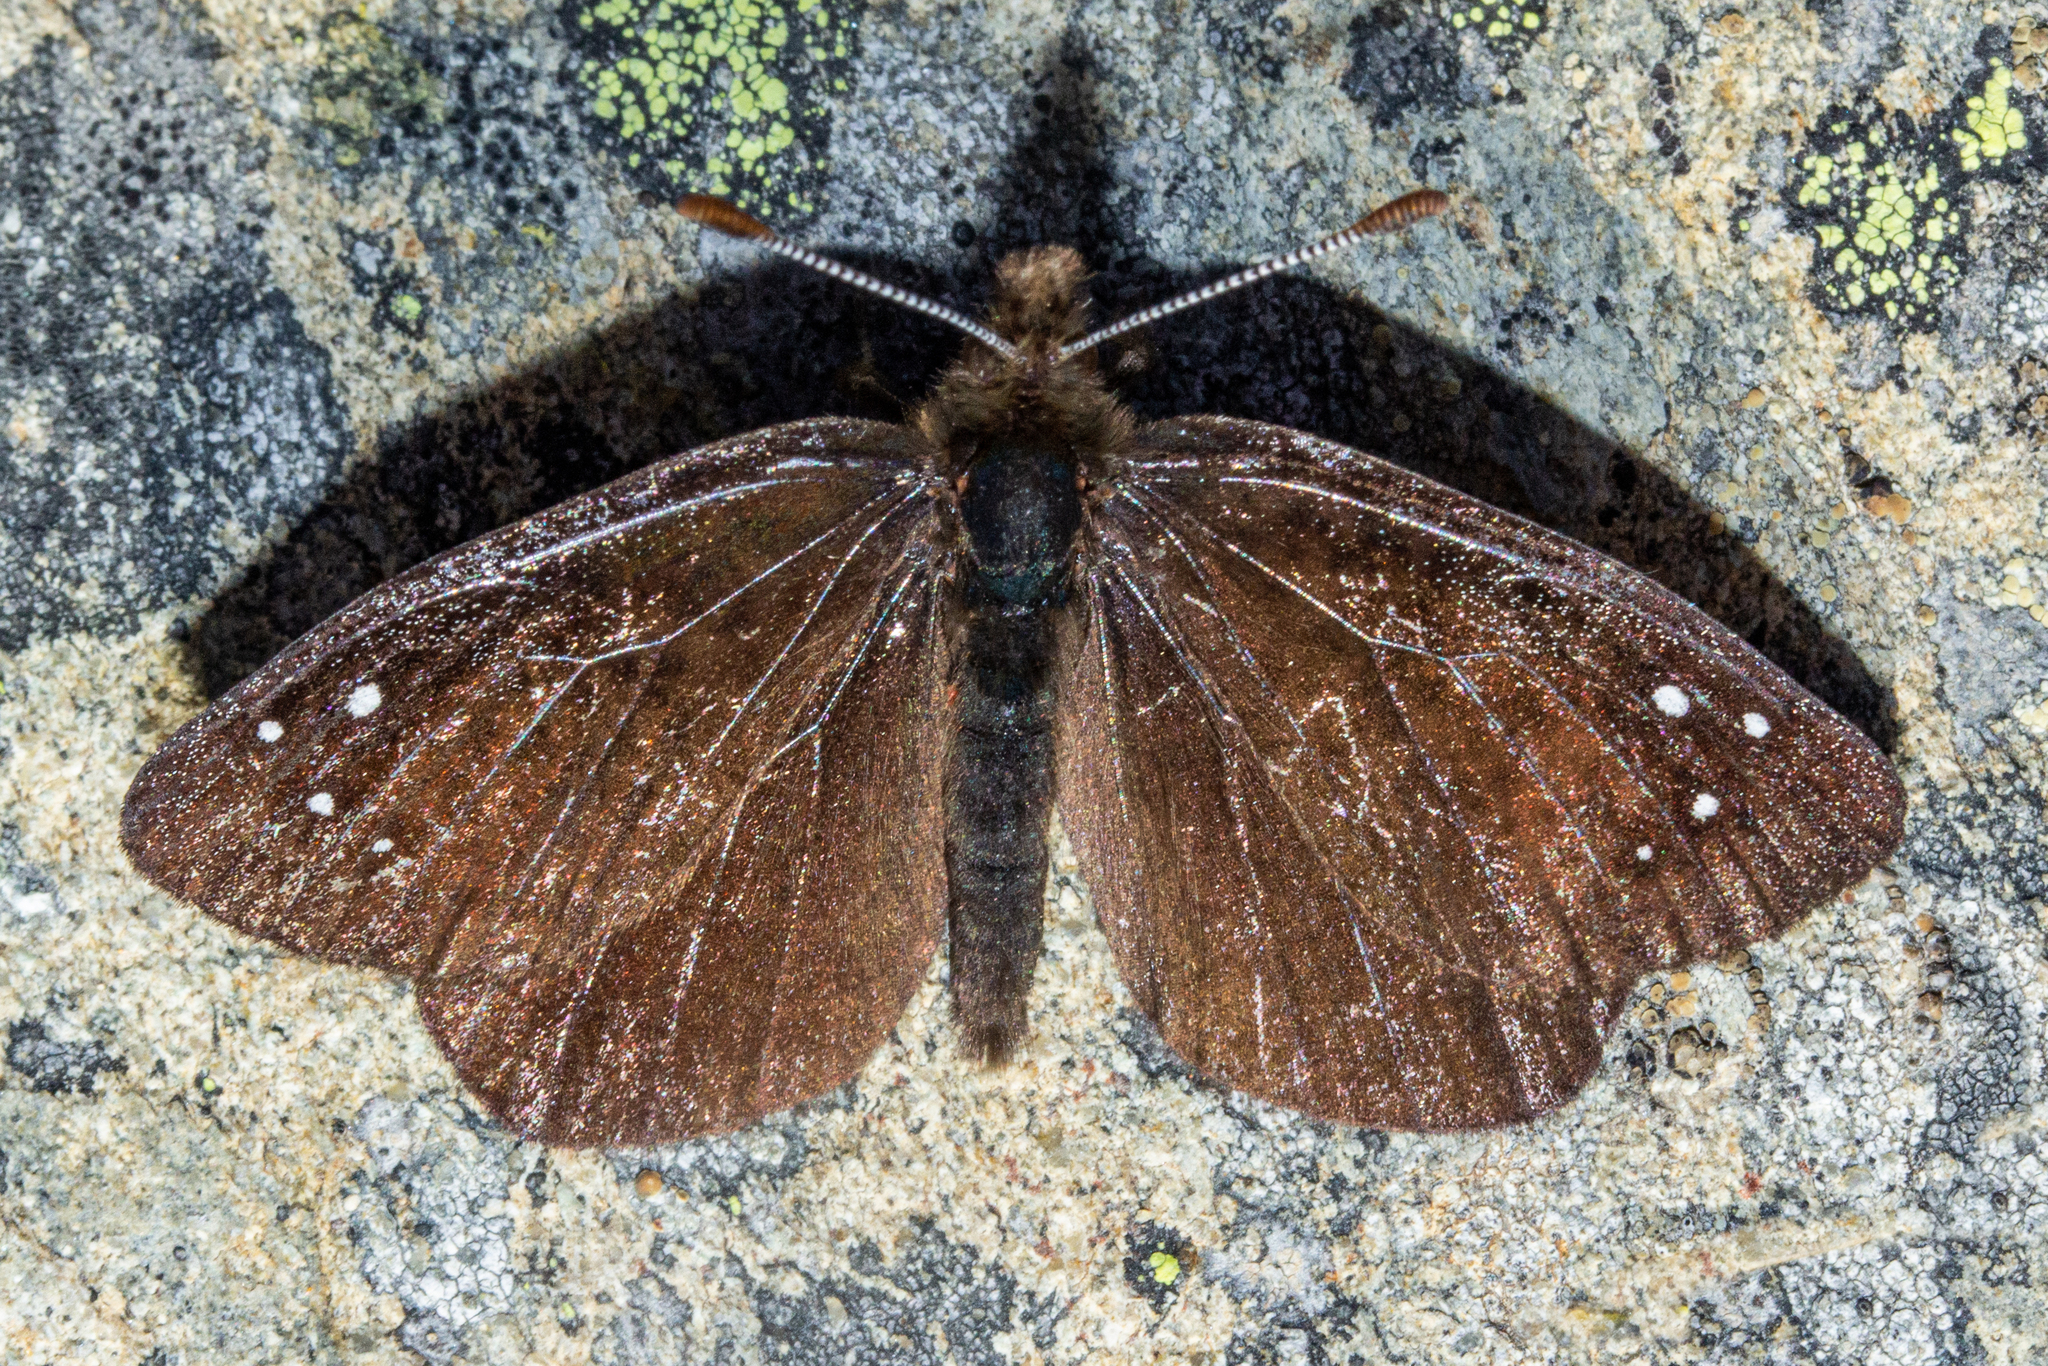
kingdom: Animalia
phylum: Arthropoda
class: Insecta
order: Lepidoptera
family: Nymphalidae
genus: Erebia
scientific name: Erebia Percnodaimon merula
